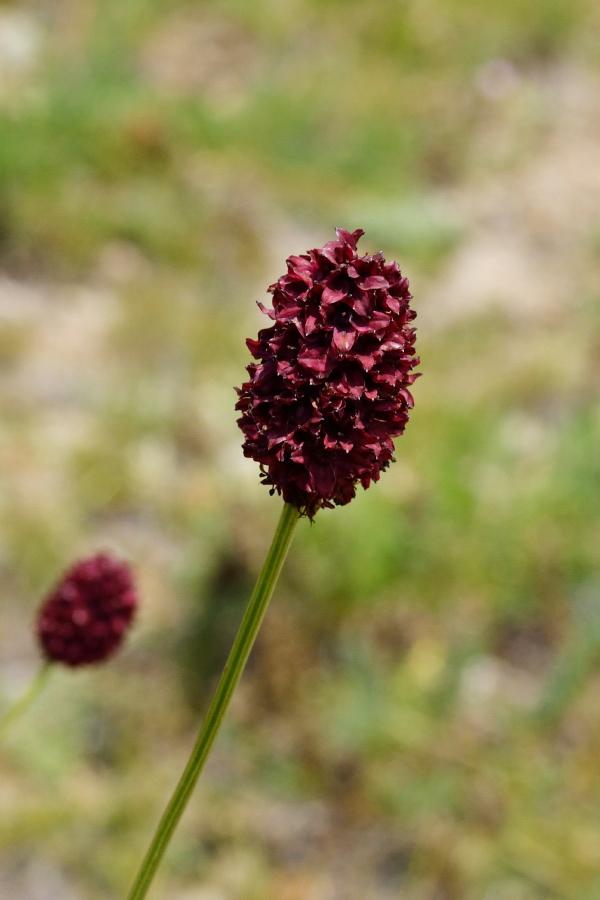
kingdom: Plantae
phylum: Tracheophyta
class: Magnoliopsida
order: Rosales
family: Rosaceae
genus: Sanguisorba
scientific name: Sanguisorba officinalis
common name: Great burnet
